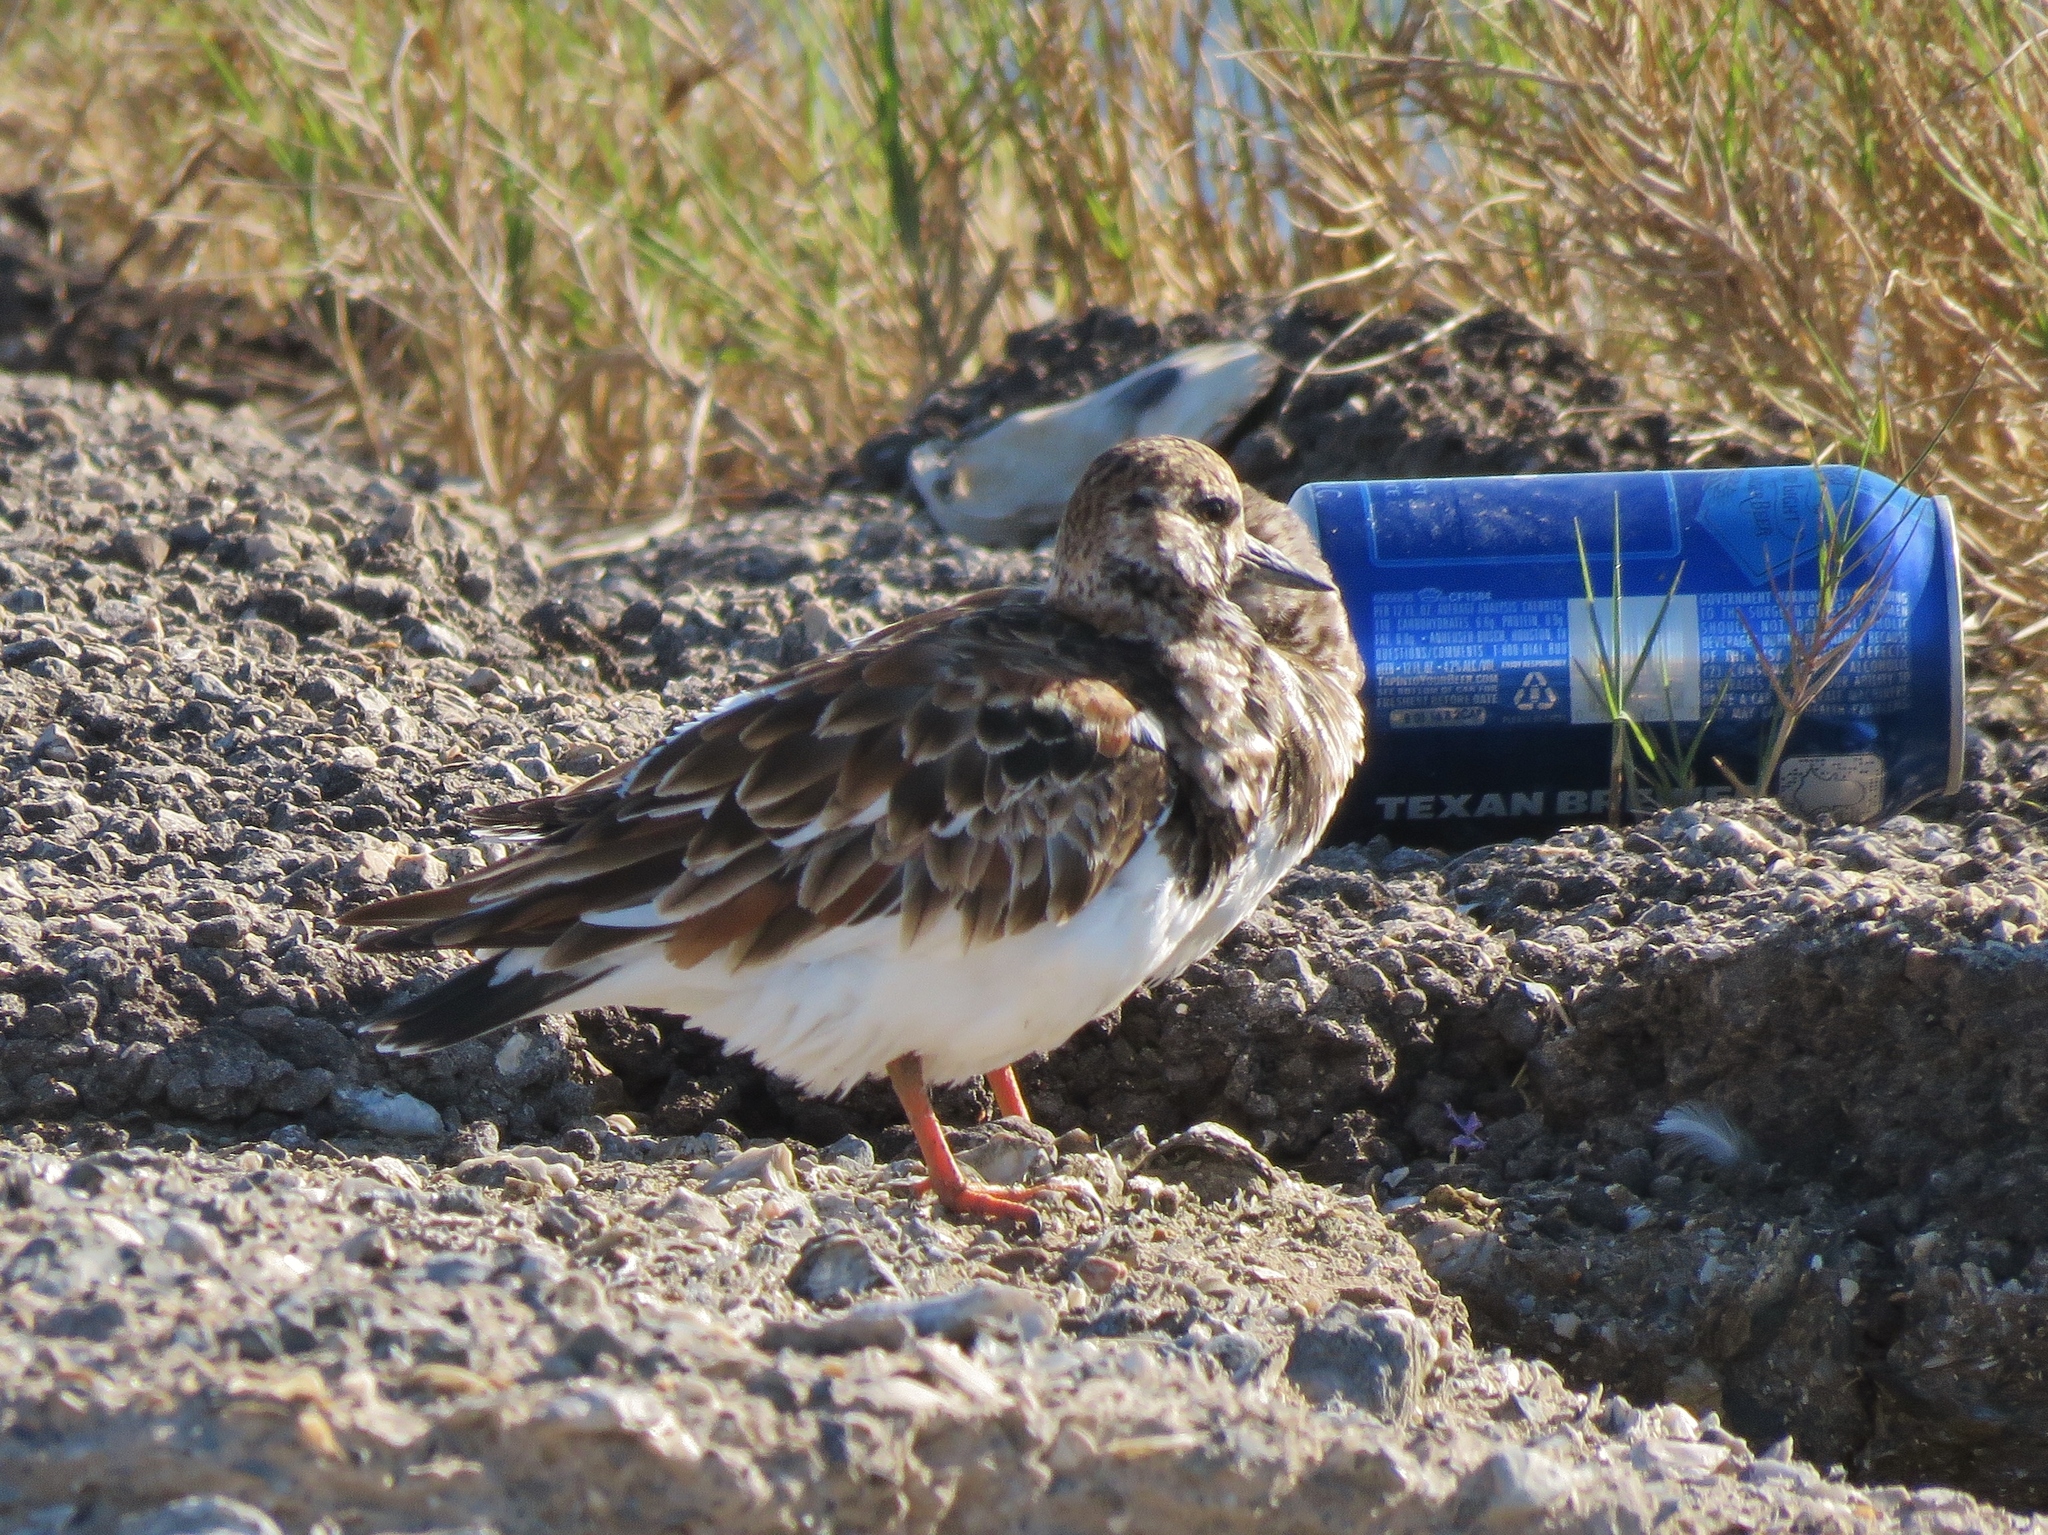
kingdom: Animalia
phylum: Chordata
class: Aves
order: Charadriiformes
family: Scolopacidae
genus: Arenaria
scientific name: Arenaria interpres
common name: Ruddy turnstone
